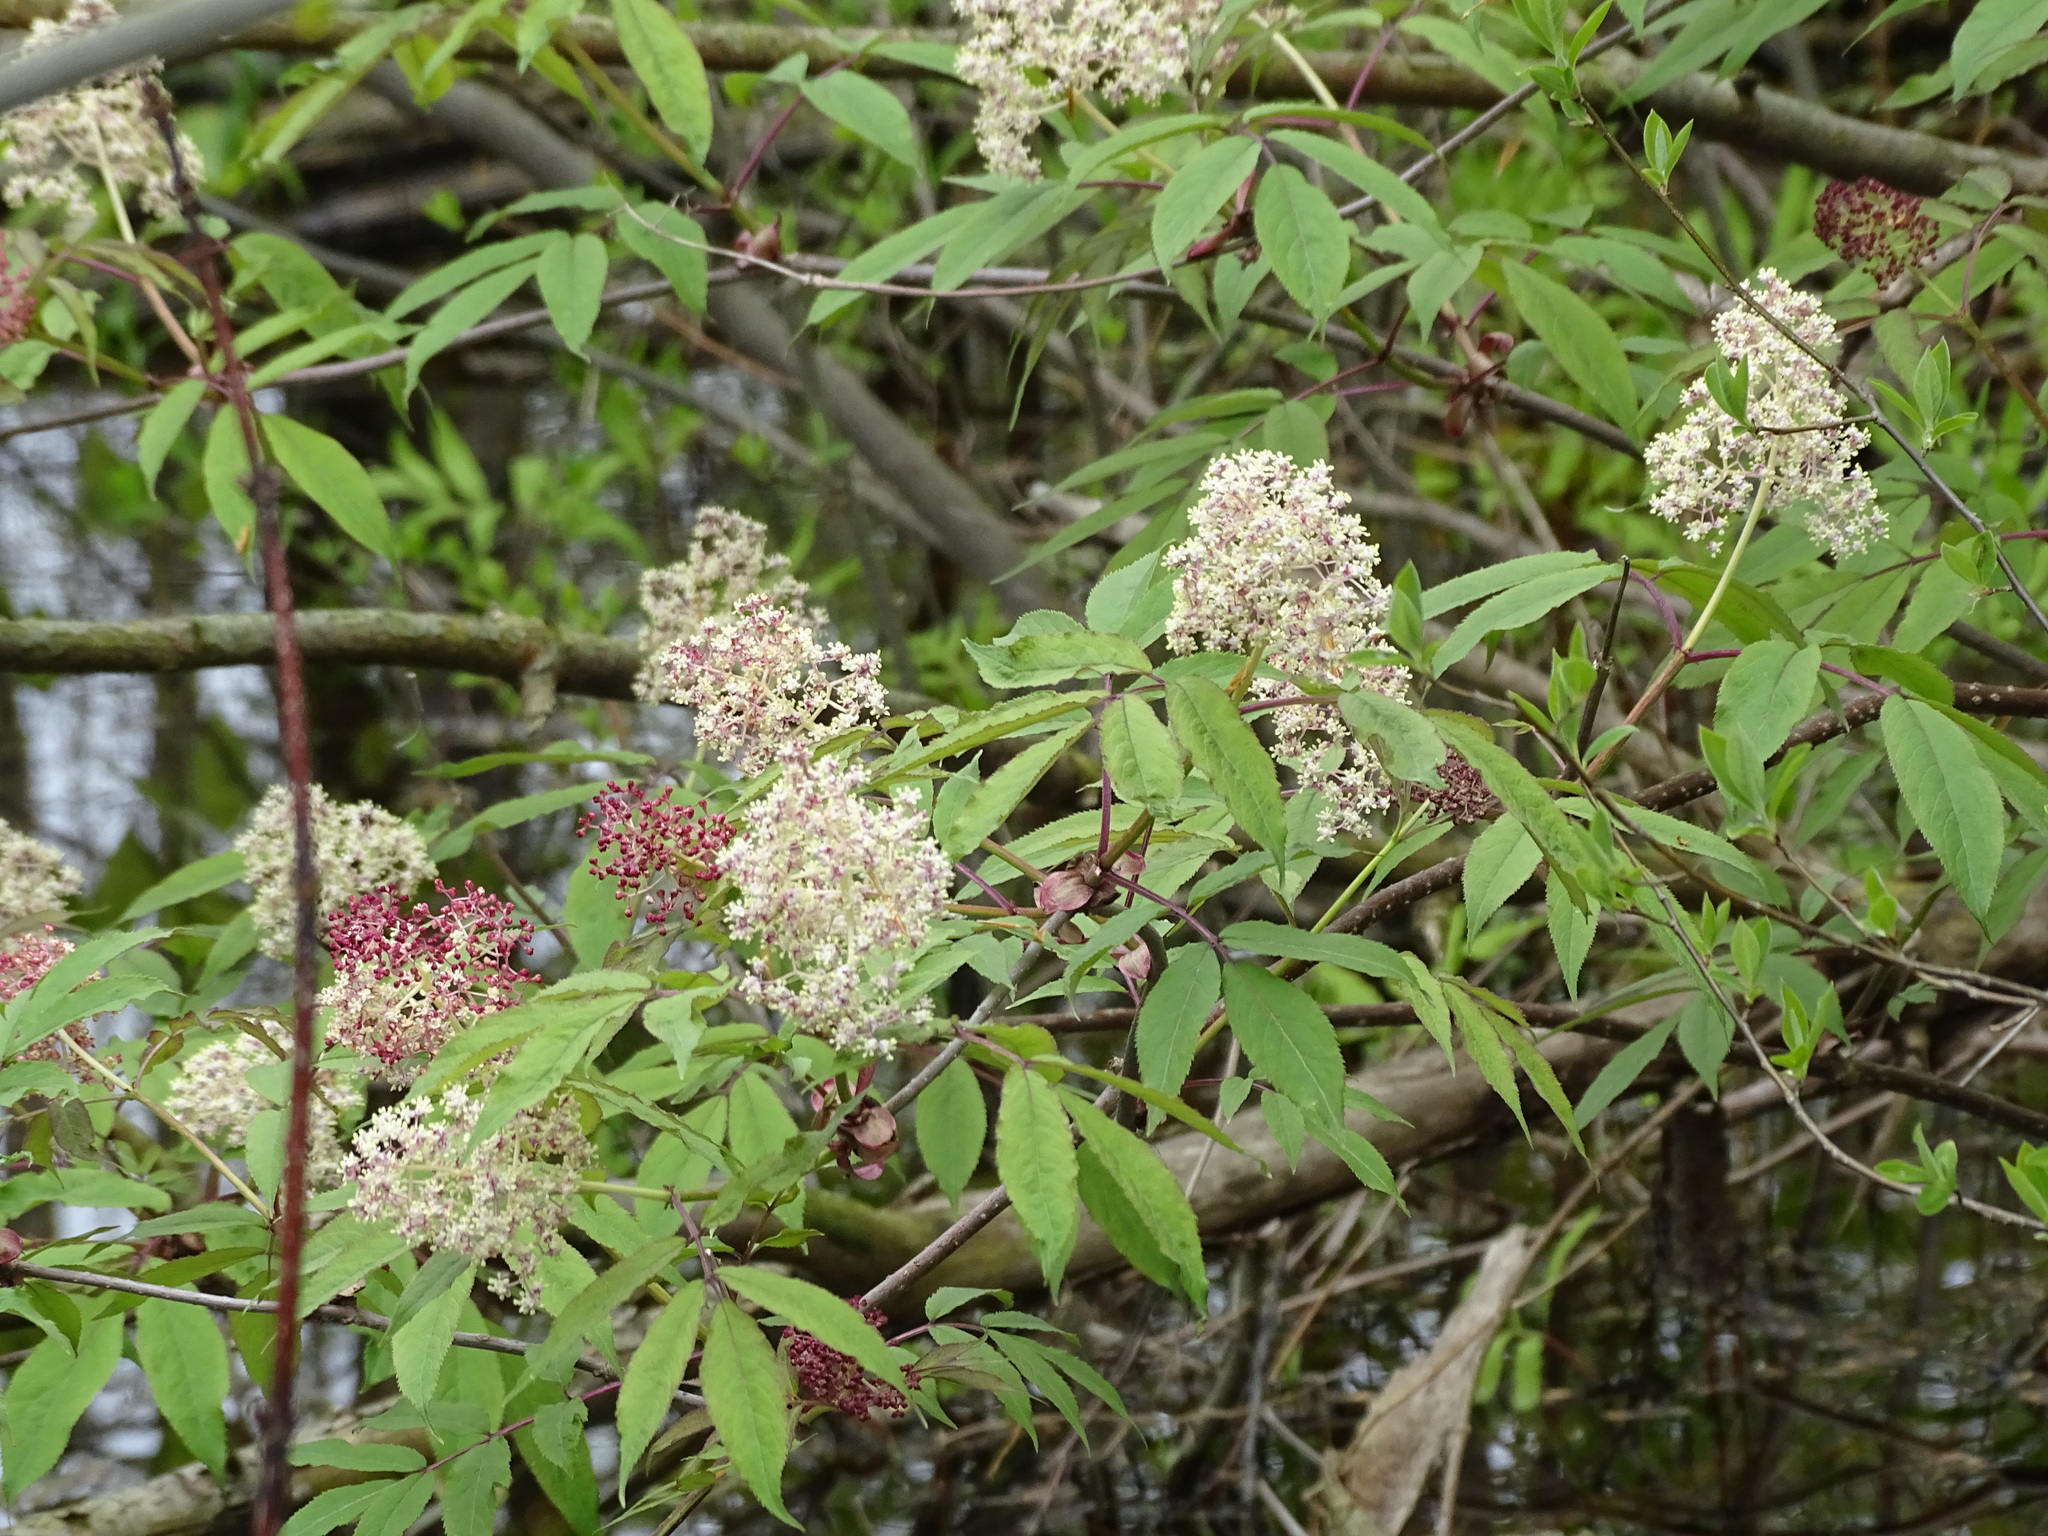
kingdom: Plantae
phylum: Tracheophyta
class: Magnoliopsida
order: Dipsacales
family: Viburnaceae
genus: Sambucus
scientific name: Sambucus racemosa
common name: Red-berried elder
